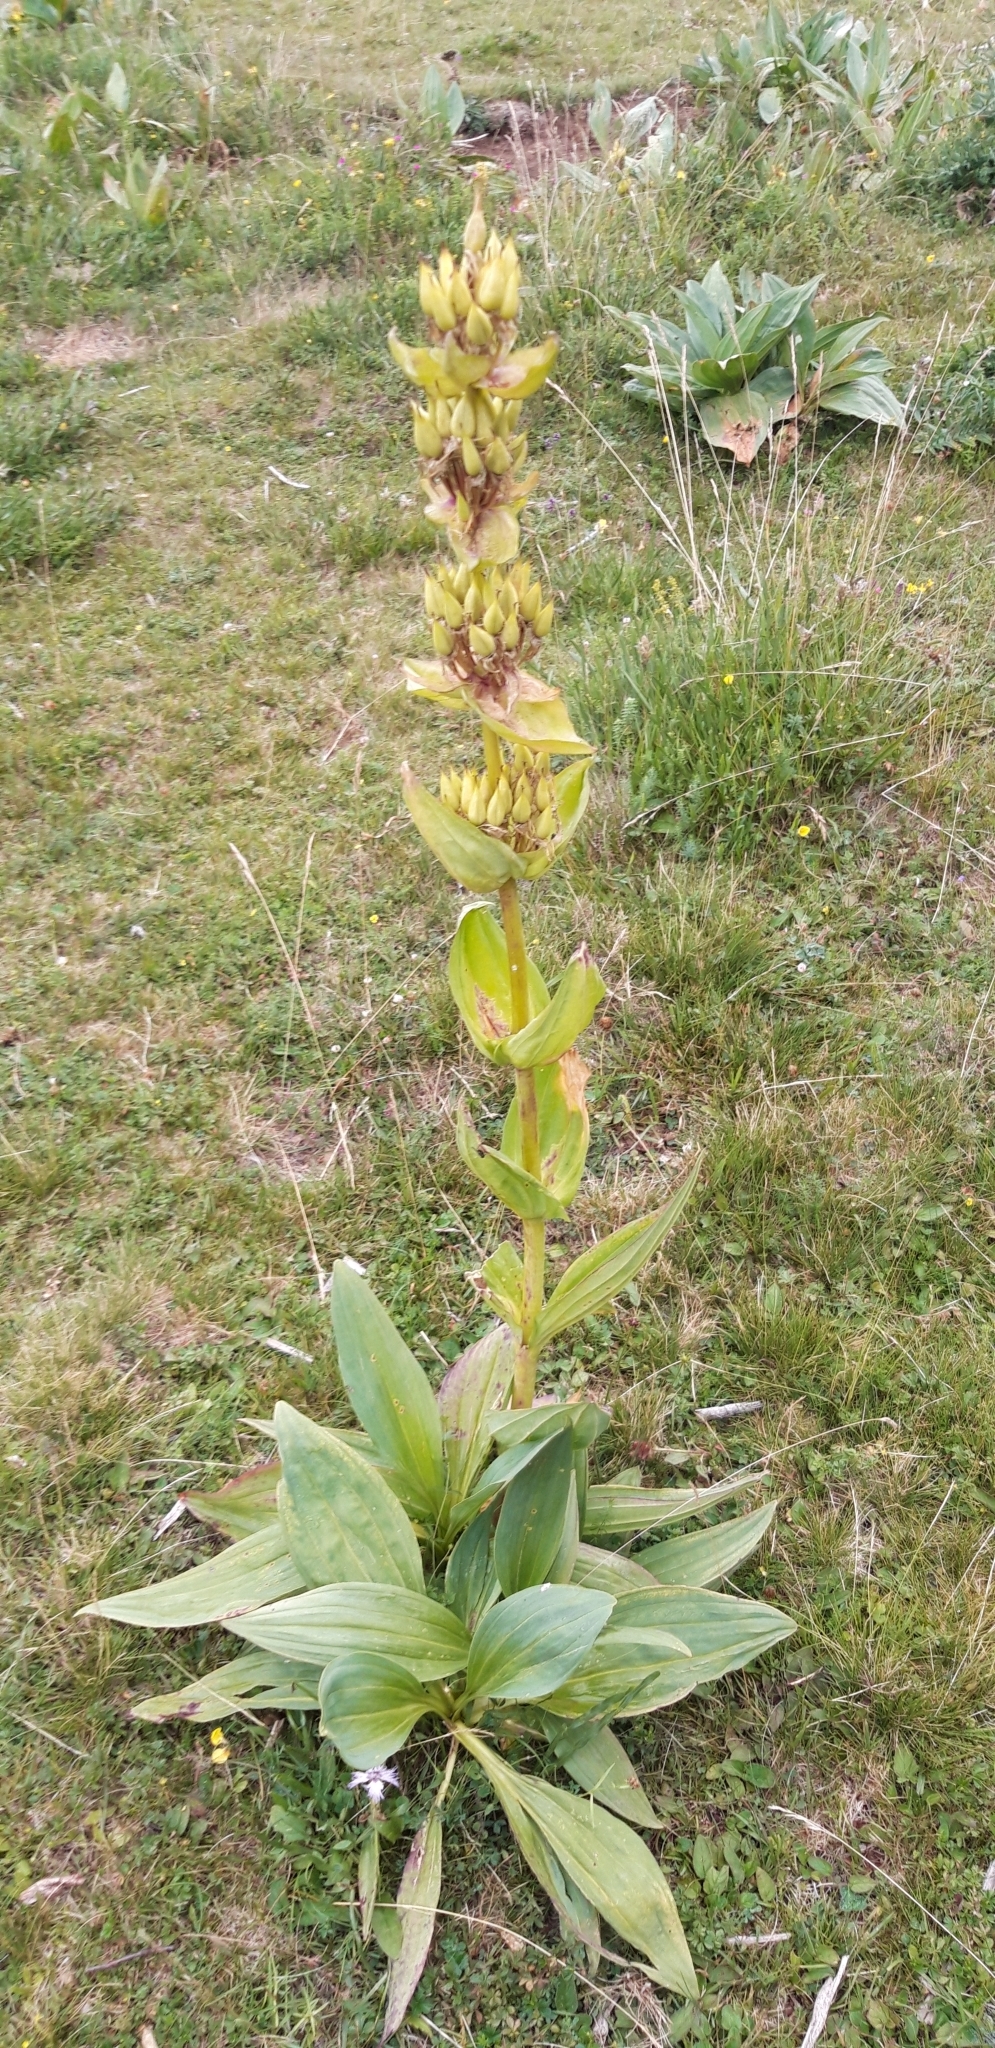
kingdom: Plantae
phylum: Tracheophyta
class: Magnoliopsida
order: Gentianales
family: Gentianaceae
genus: Gentiana
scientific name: Gentiana lutea
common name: Great yellow gentian
